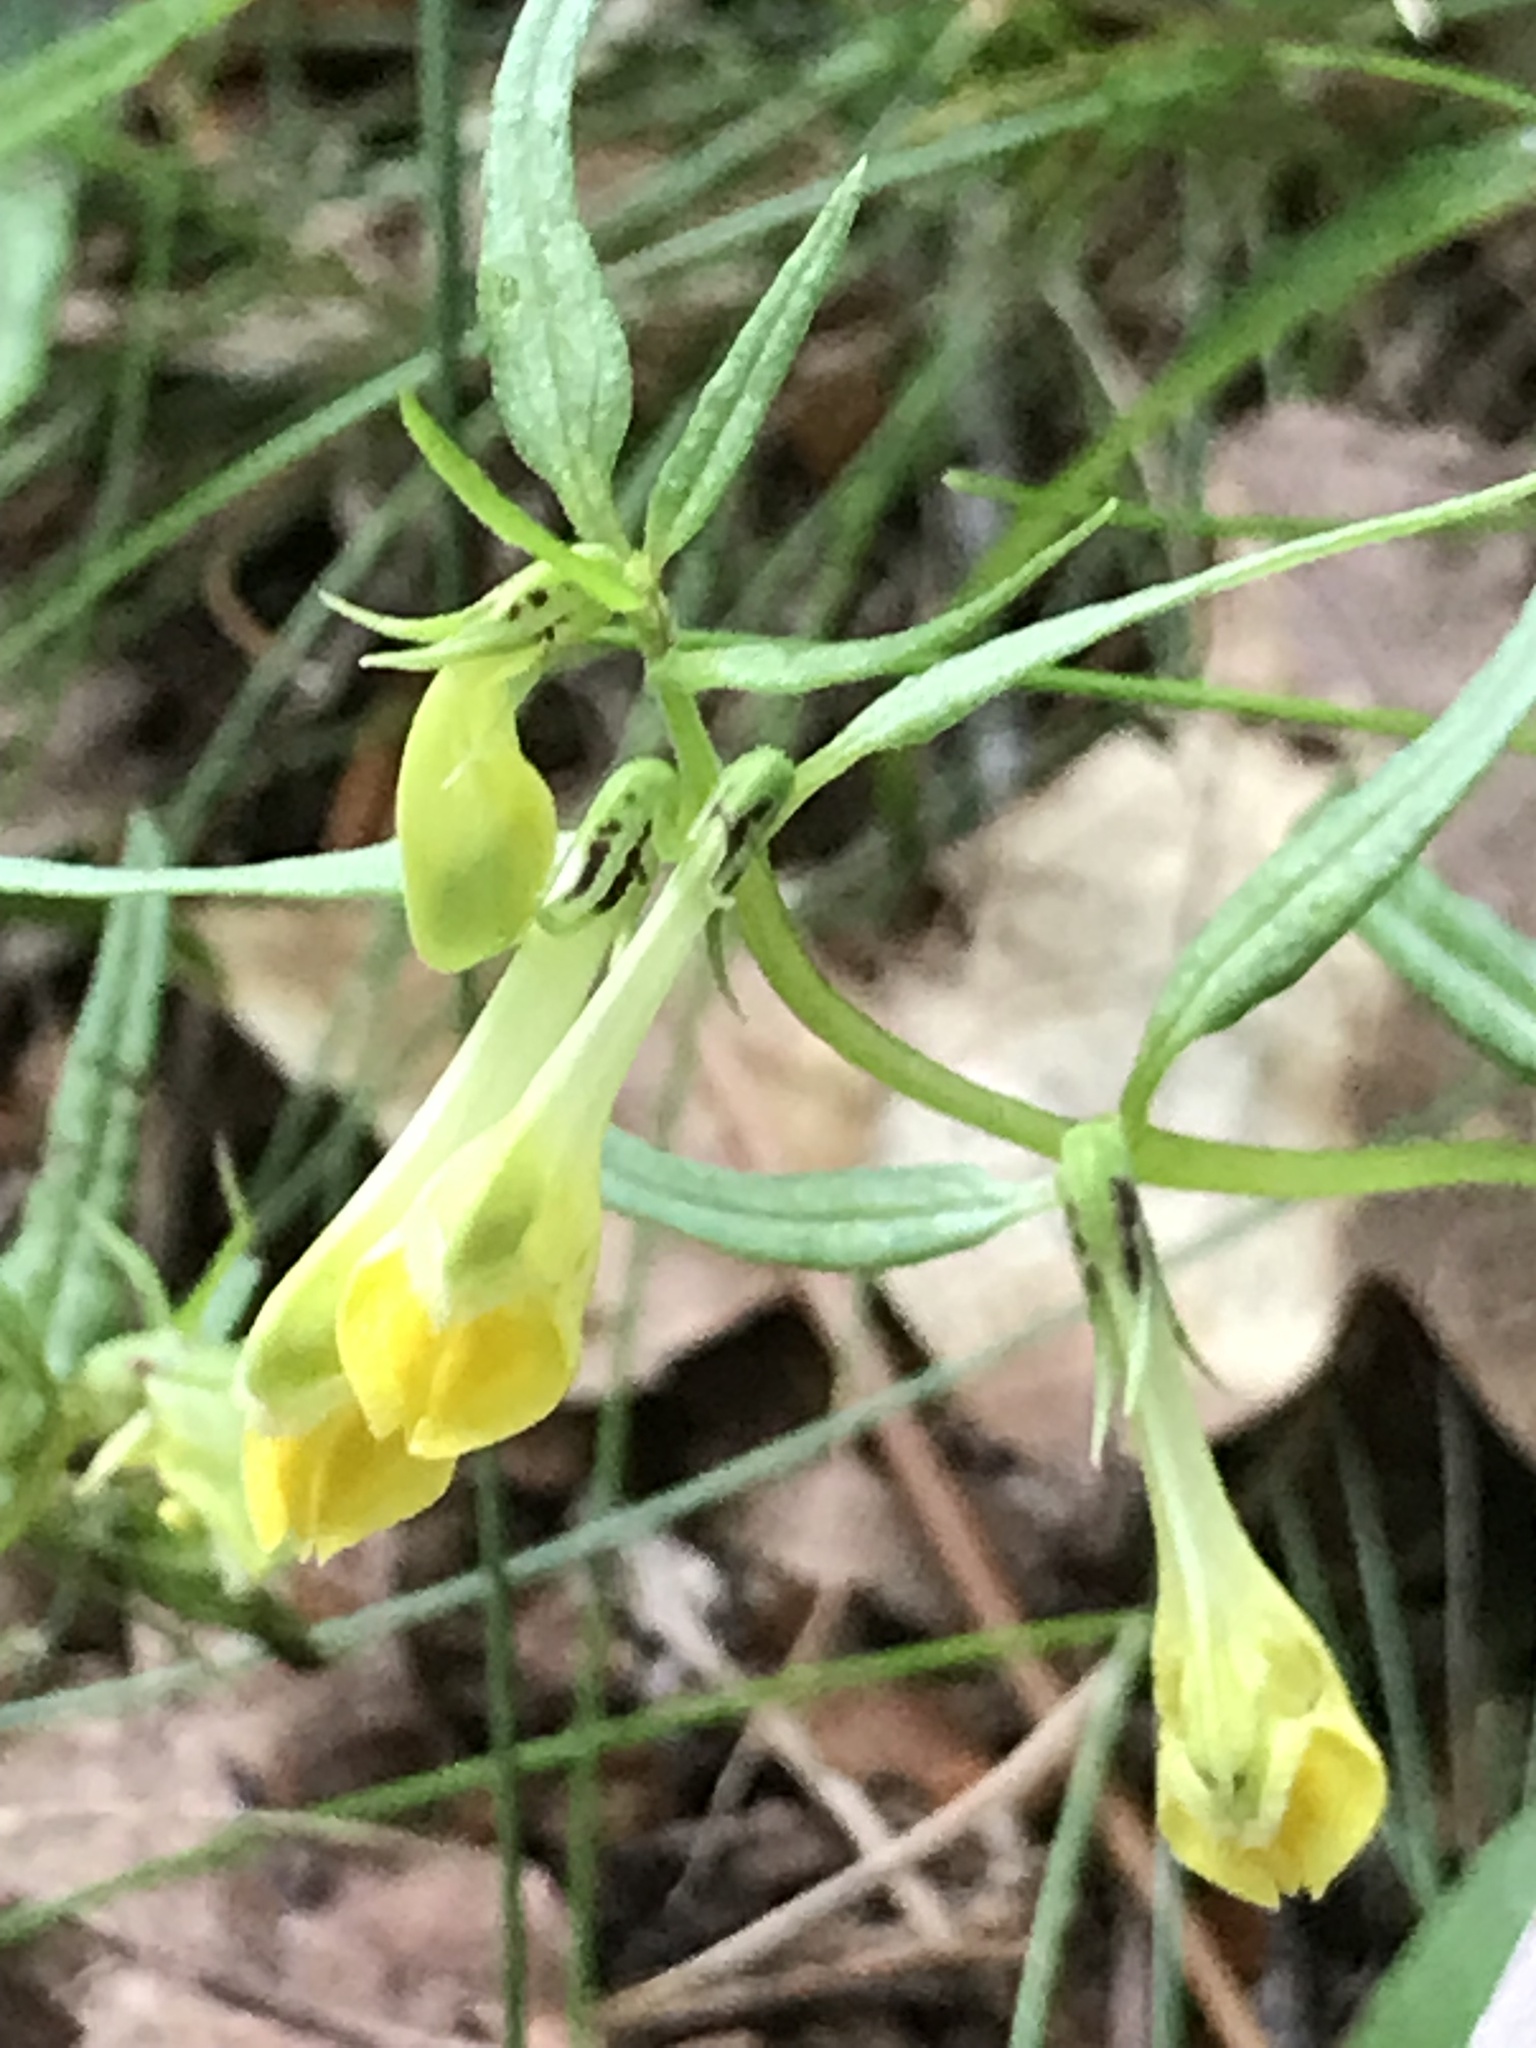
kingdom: Plantae
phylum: Tracheophyta
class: Magnoliopsida
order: Lamiales
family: Orobanchaceae
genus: Melampyrum
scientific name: Melampyrum pratense
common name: Common cow-wheat
